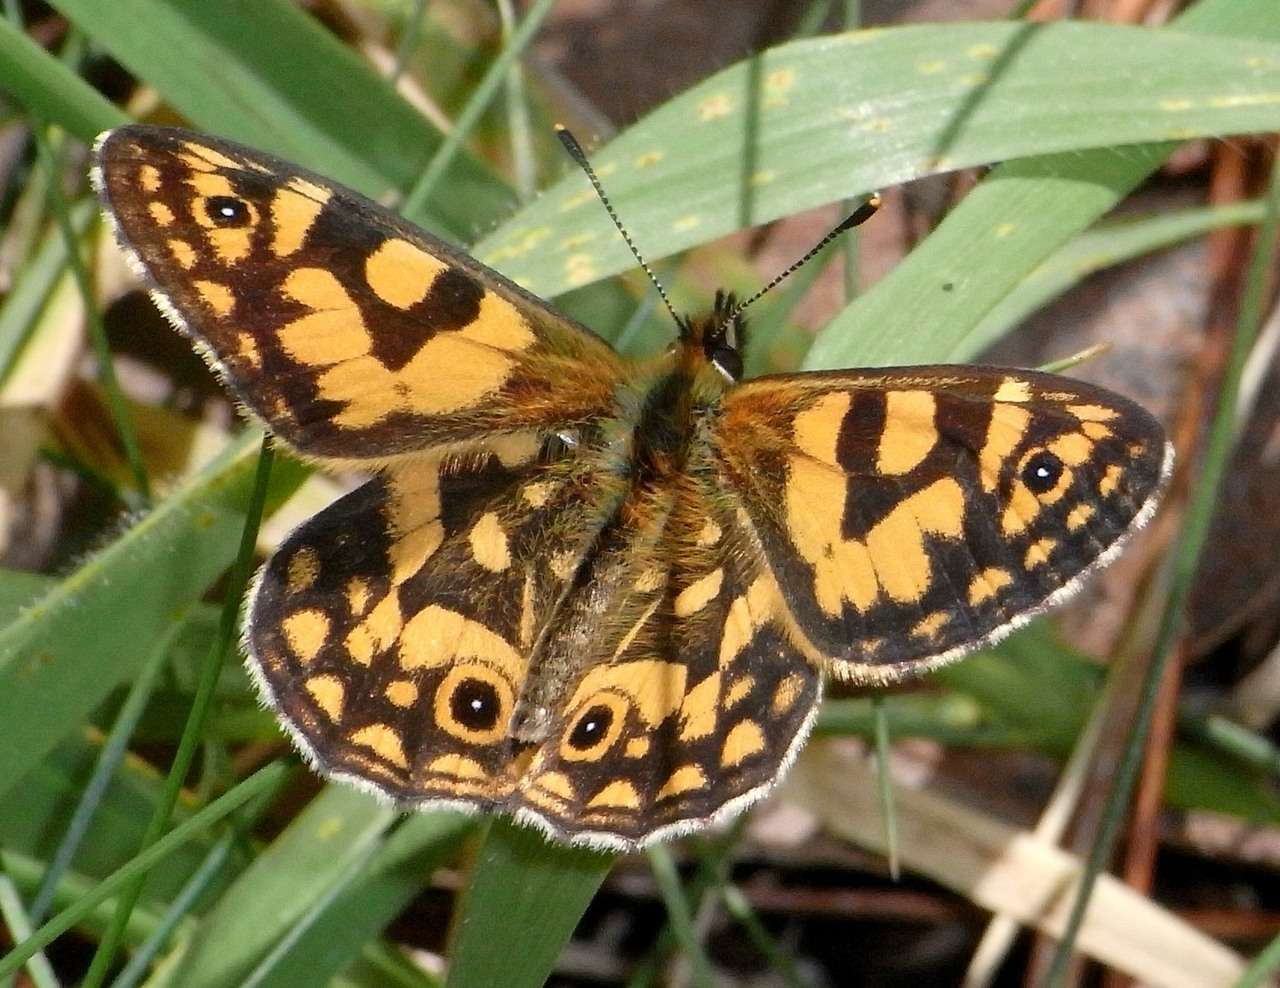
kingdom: Animalia
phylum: Arthropoda
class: Insecta
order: Lepidoptera
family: Nymphalidae
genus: Oreixenica
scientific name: Oreixenica lathoniella
